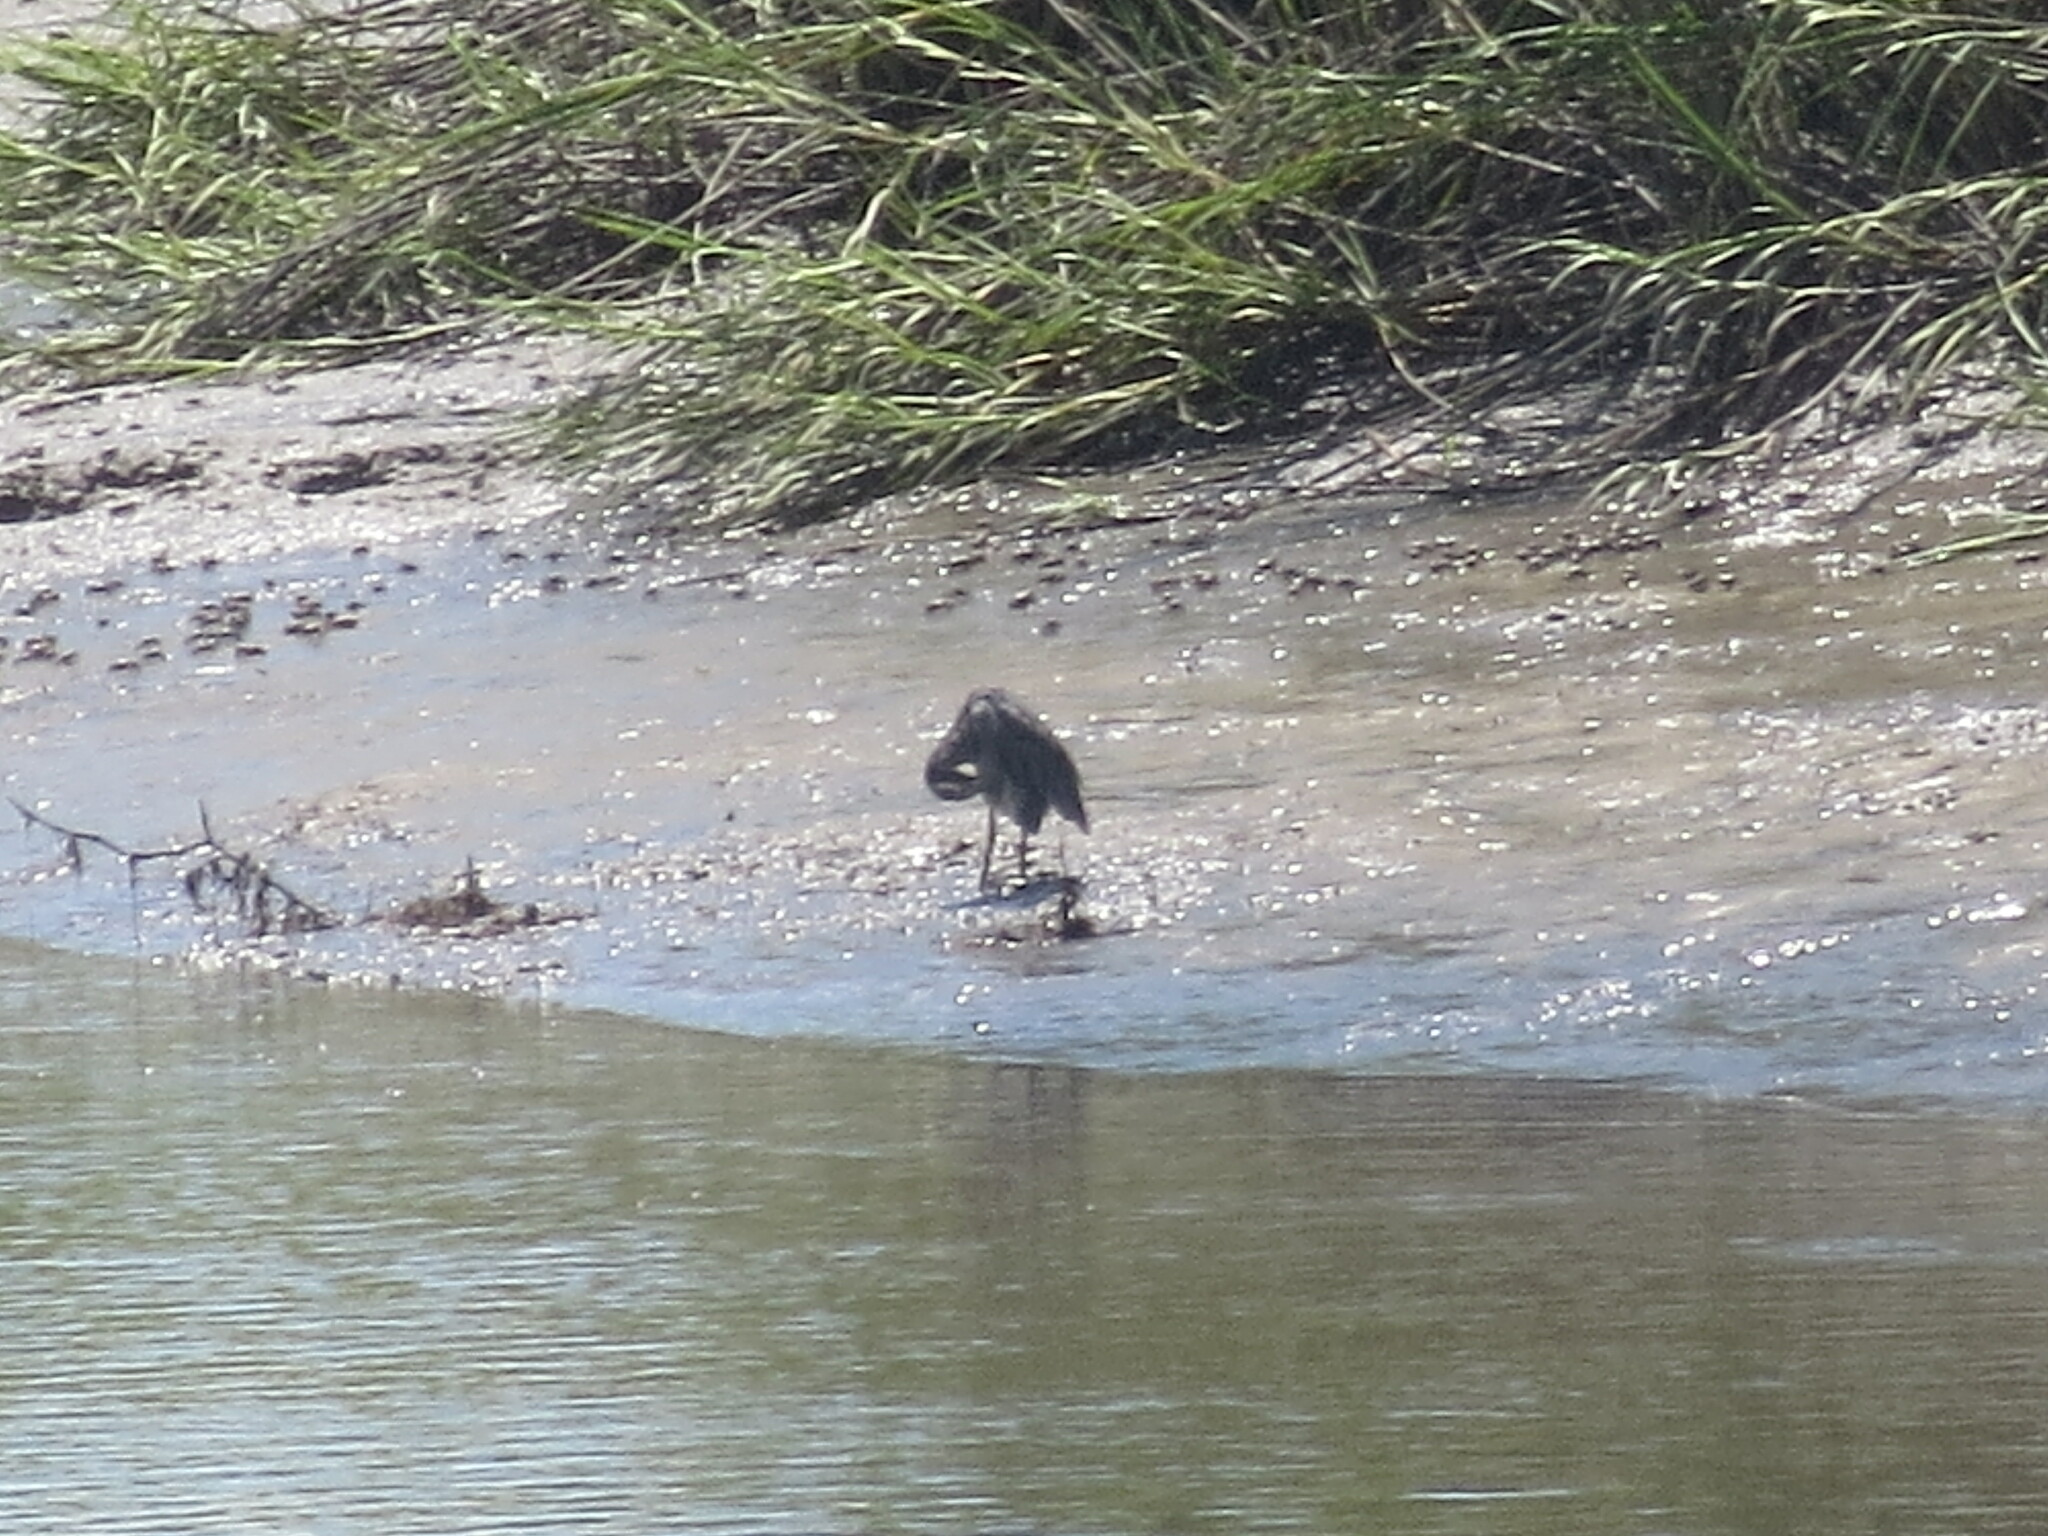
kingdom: Animalia
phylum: Chordata
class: Aves
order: Pelecaniformes
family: Ardeidae
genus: Nyctanassa
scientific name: Nyctanassa violacea
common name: Yellow-crowned night heron
